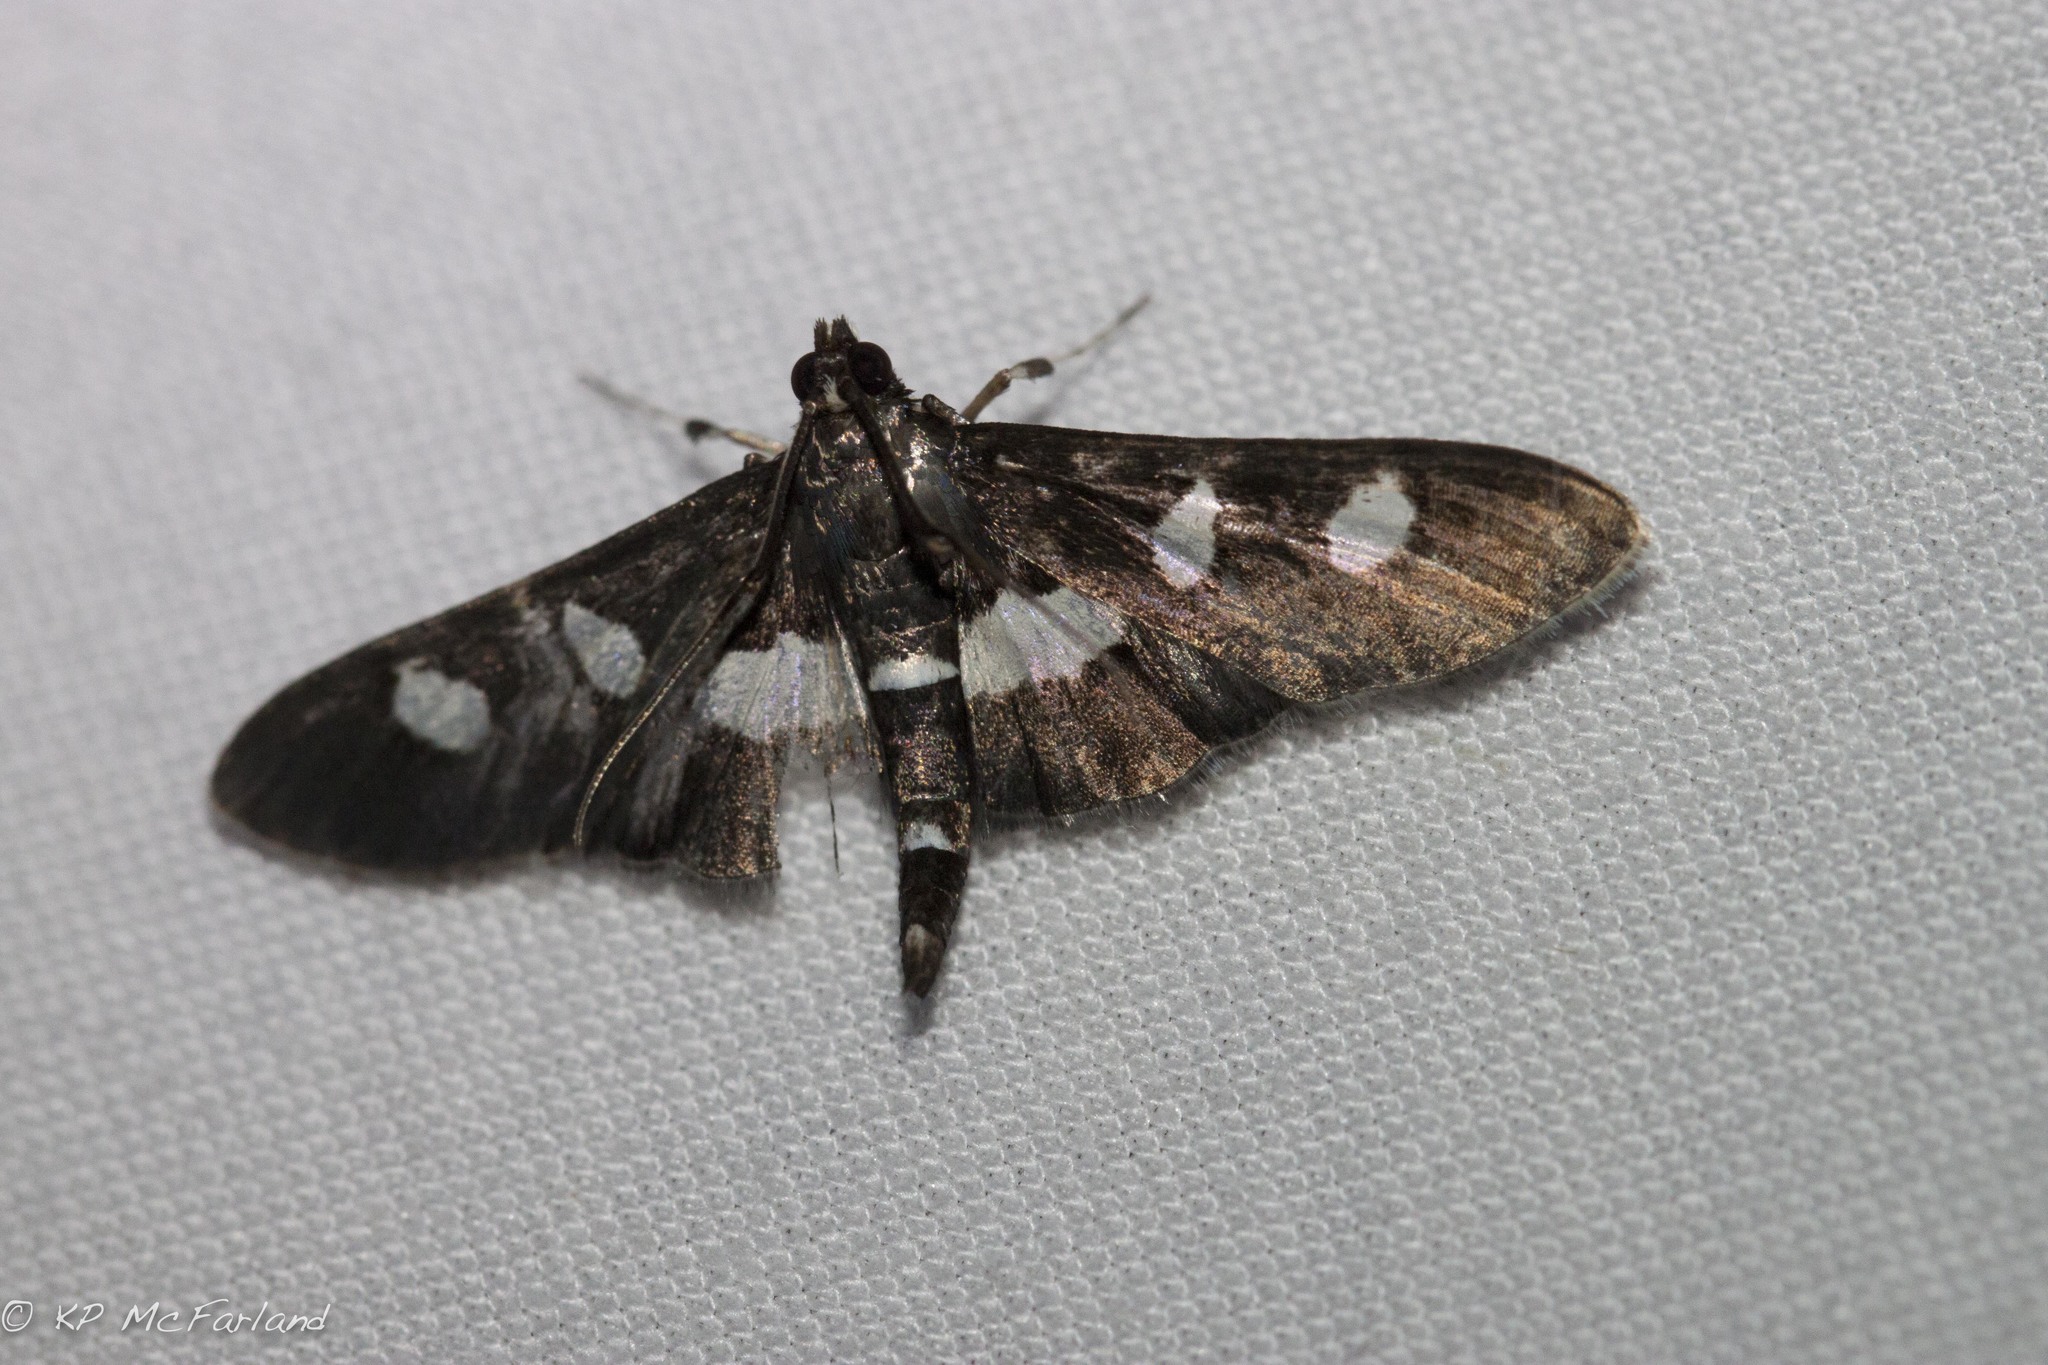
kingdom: Animalia
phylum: Arthropoda
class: Insecta
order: Lepidoptera
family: Crambidae
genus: Desmia
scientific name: Desmia
